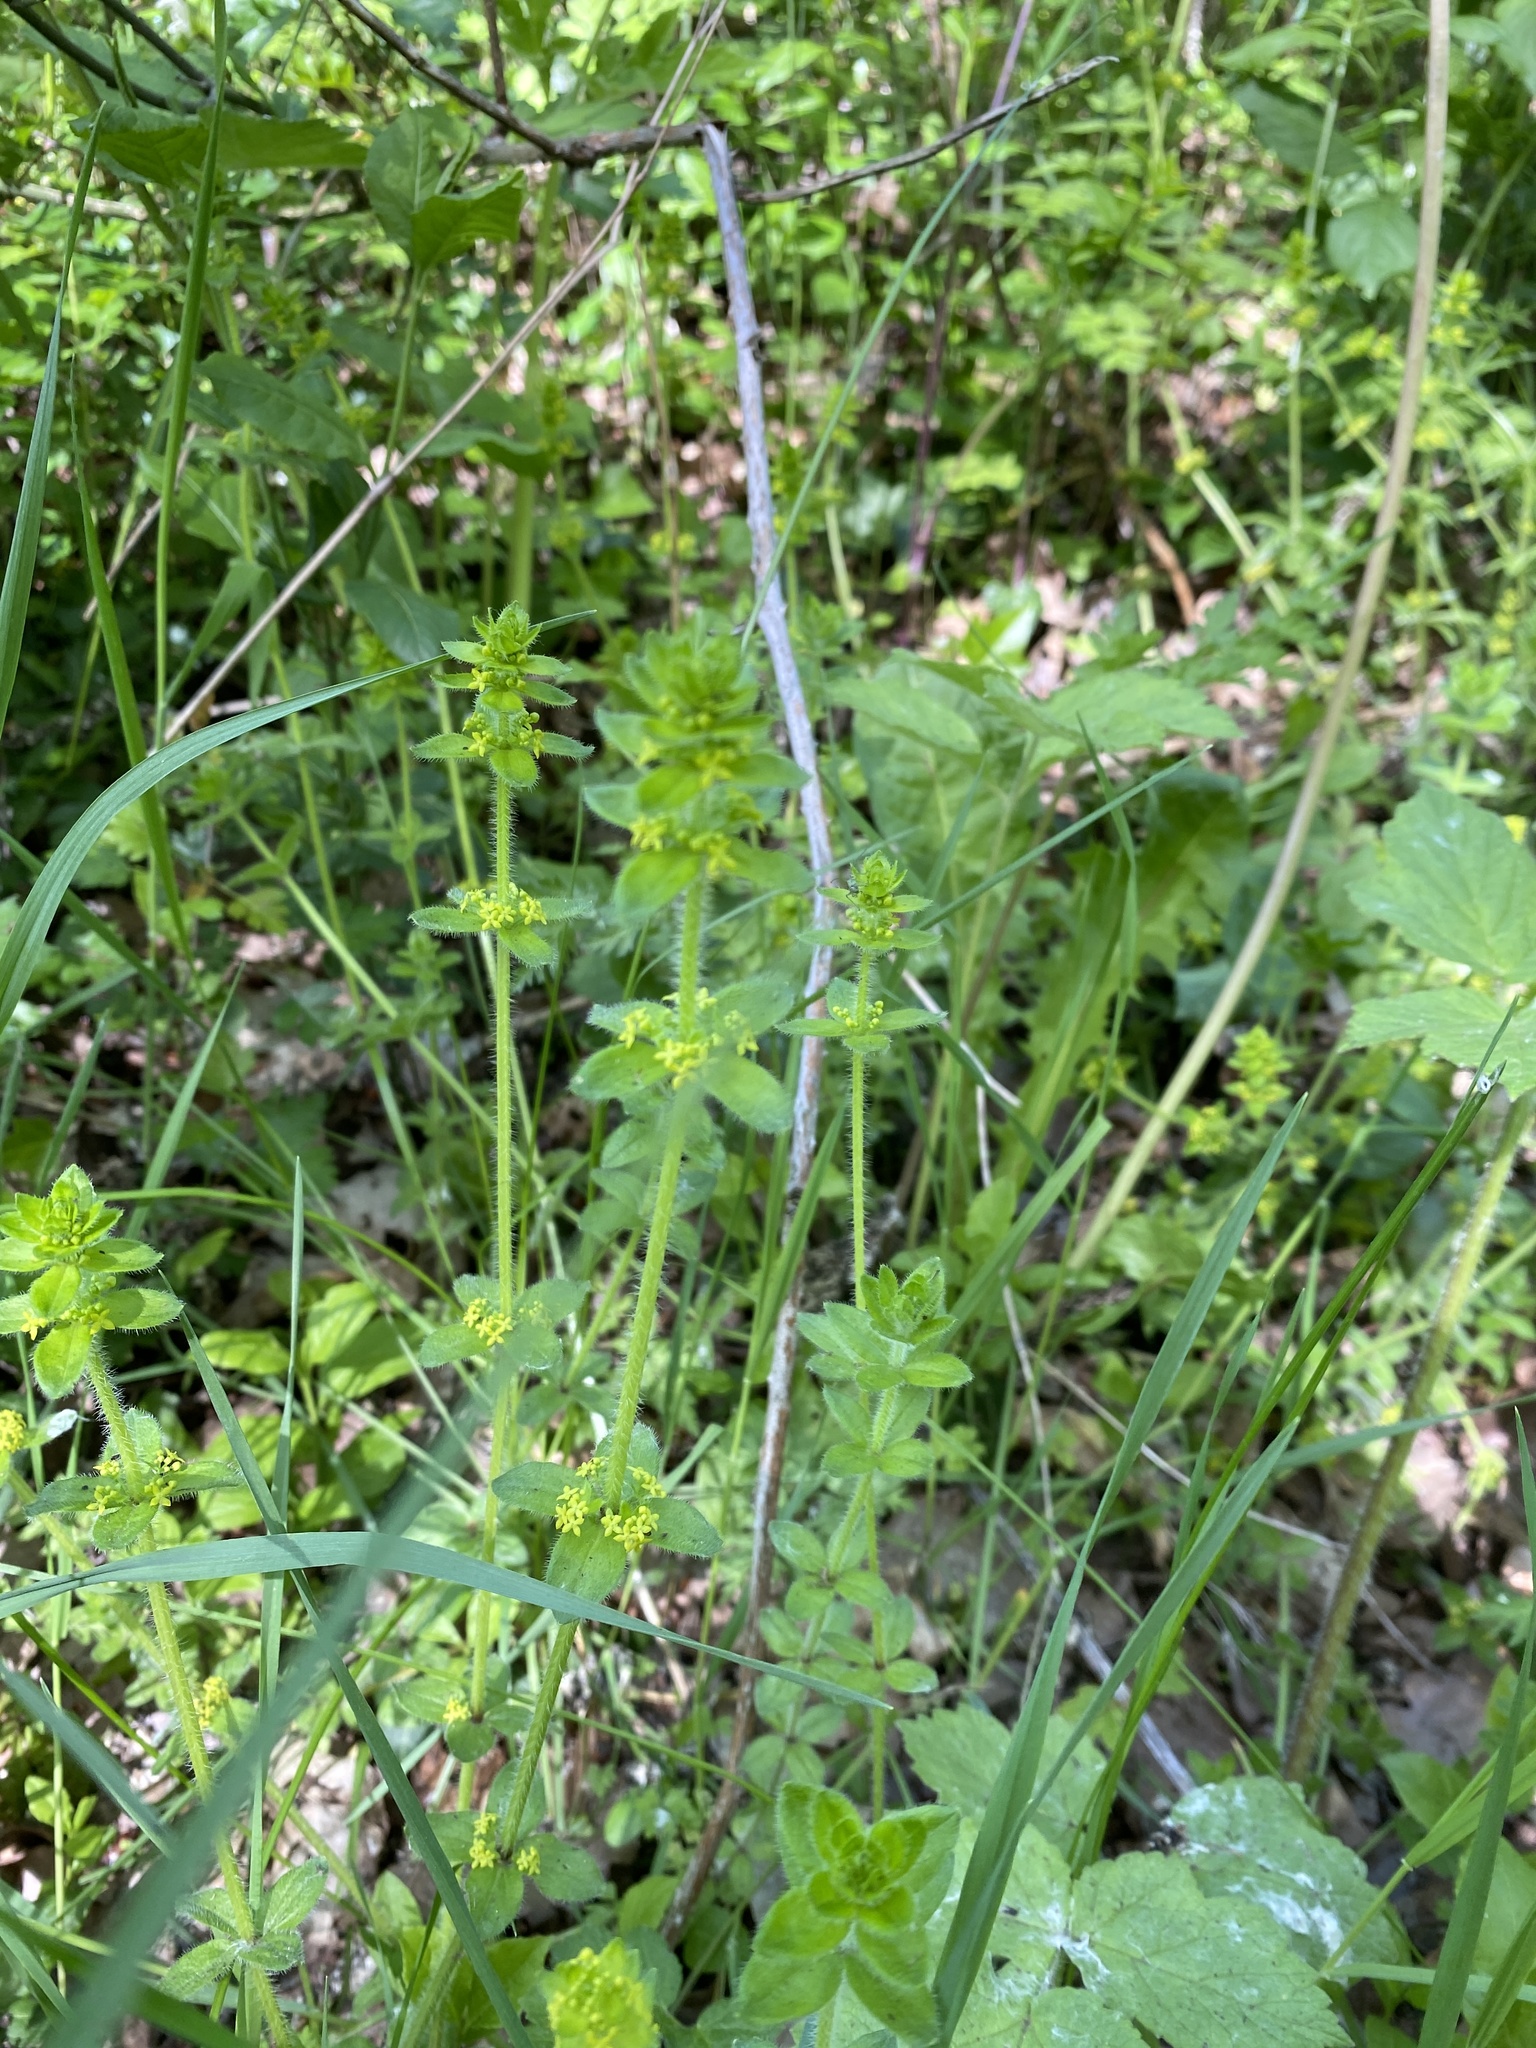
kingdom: Plantae
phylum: Tracheophyta
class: Magnoliopsida
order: Gentianales
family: Rubiaceae
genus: Cruciata
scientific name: Cruciata laevipes
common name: Crosswort
